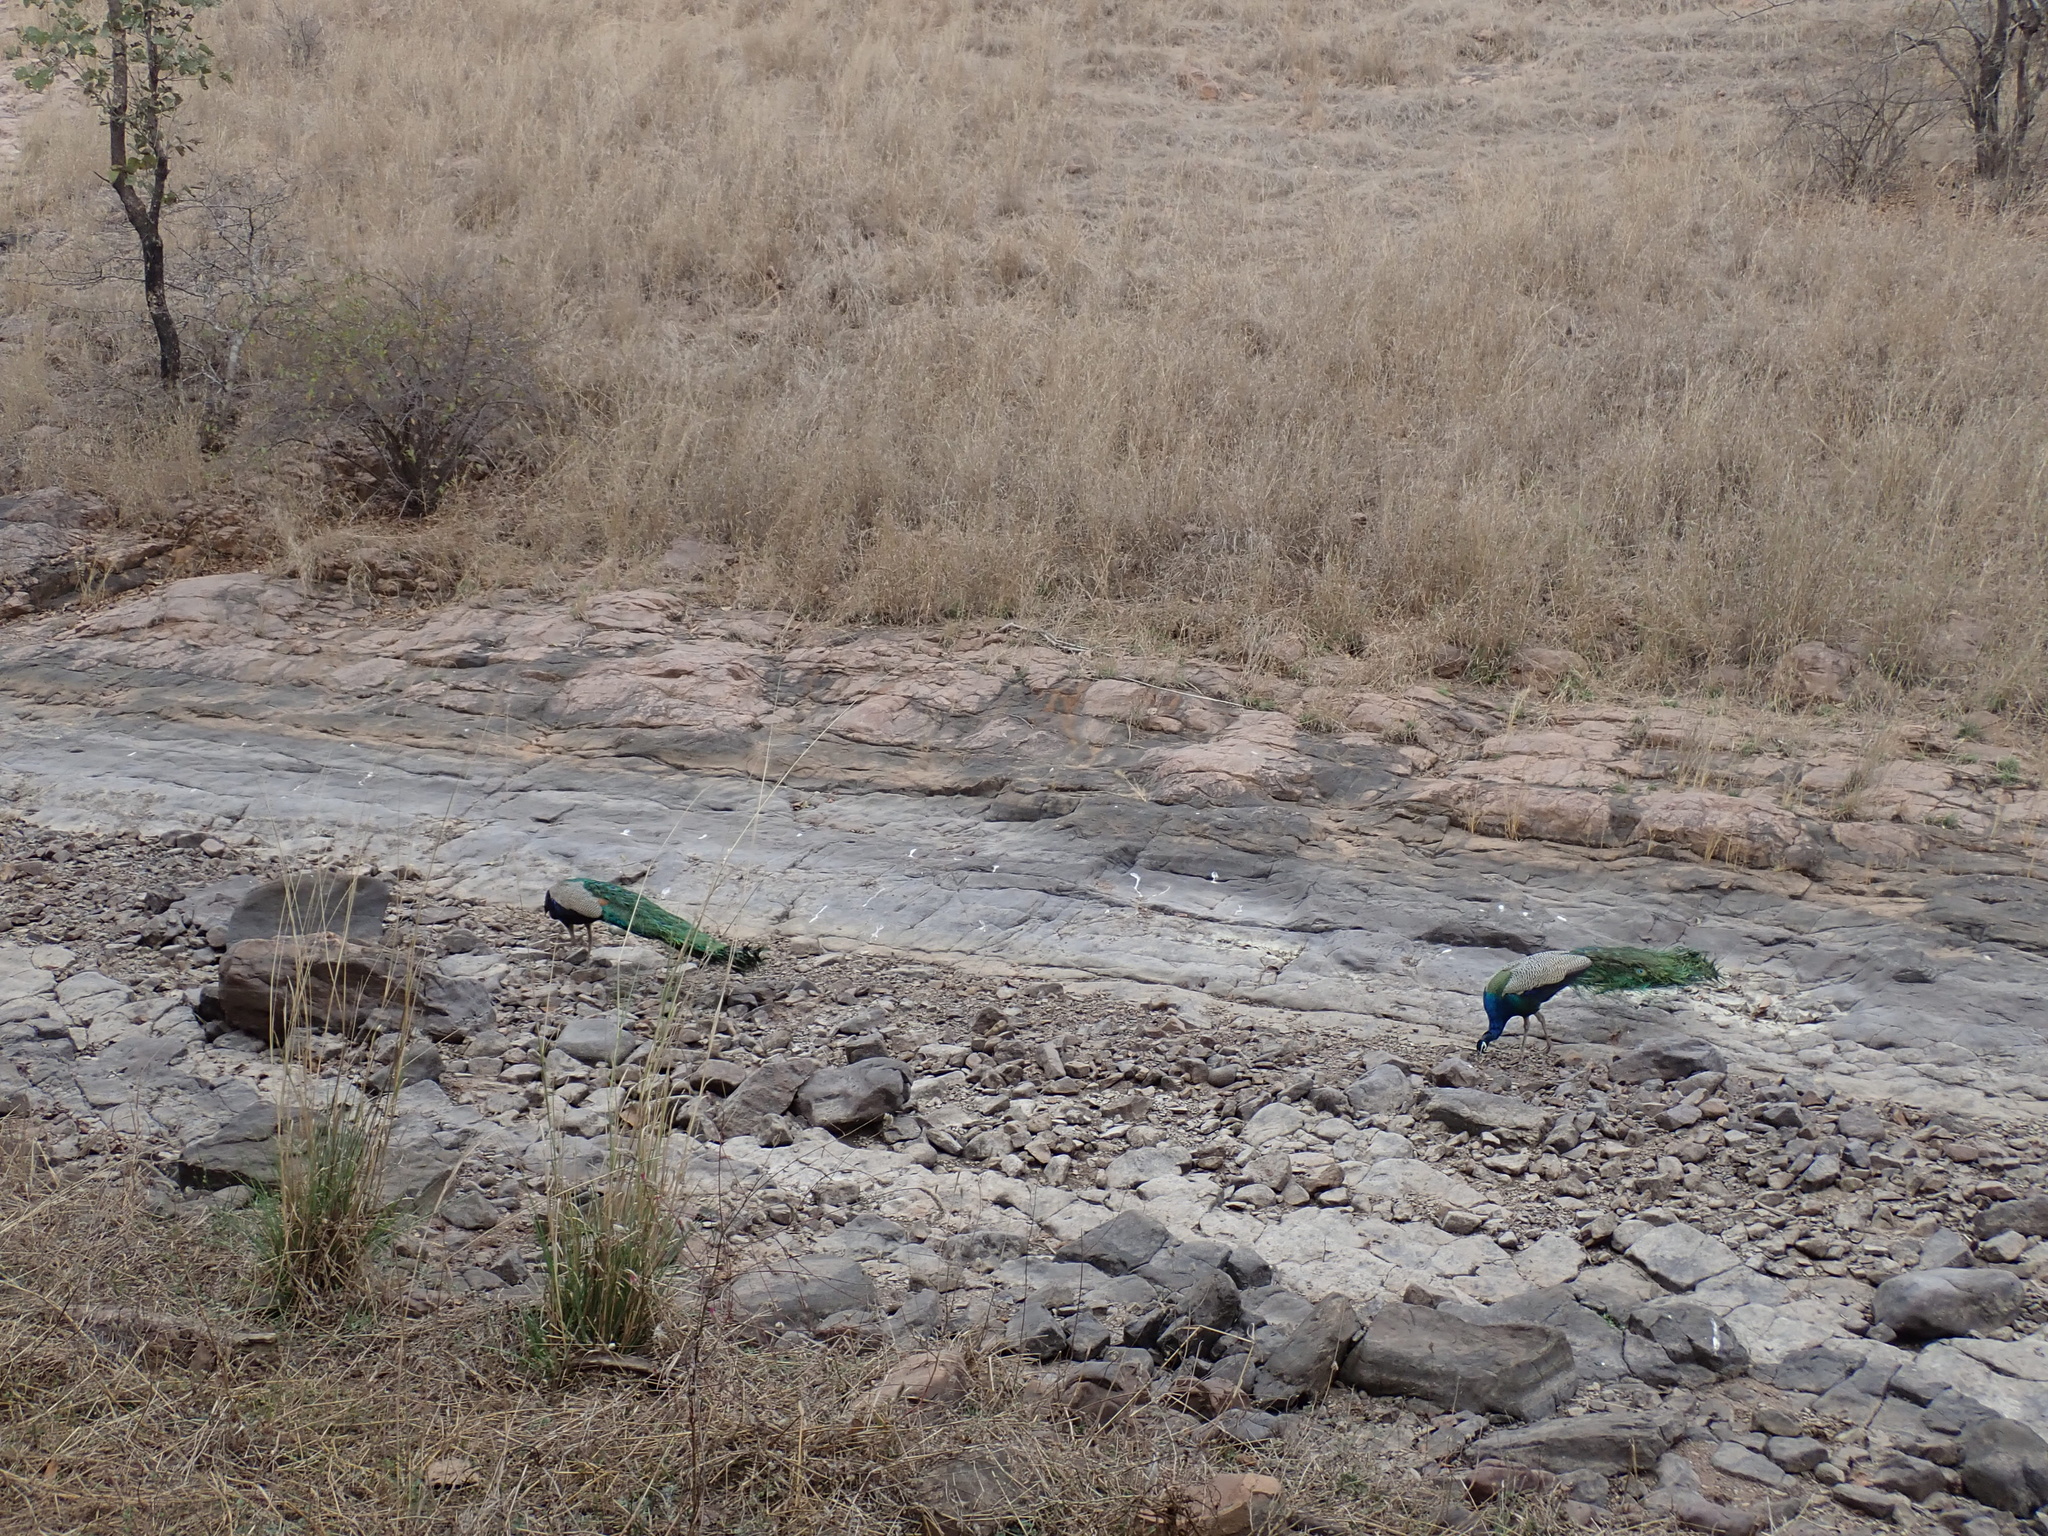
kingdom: Animalia
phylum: Chordata
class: Aves
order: Galliformes
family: Phasianidae
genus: Pavo
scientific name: Pavo cristatus
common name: Indian peafowl
